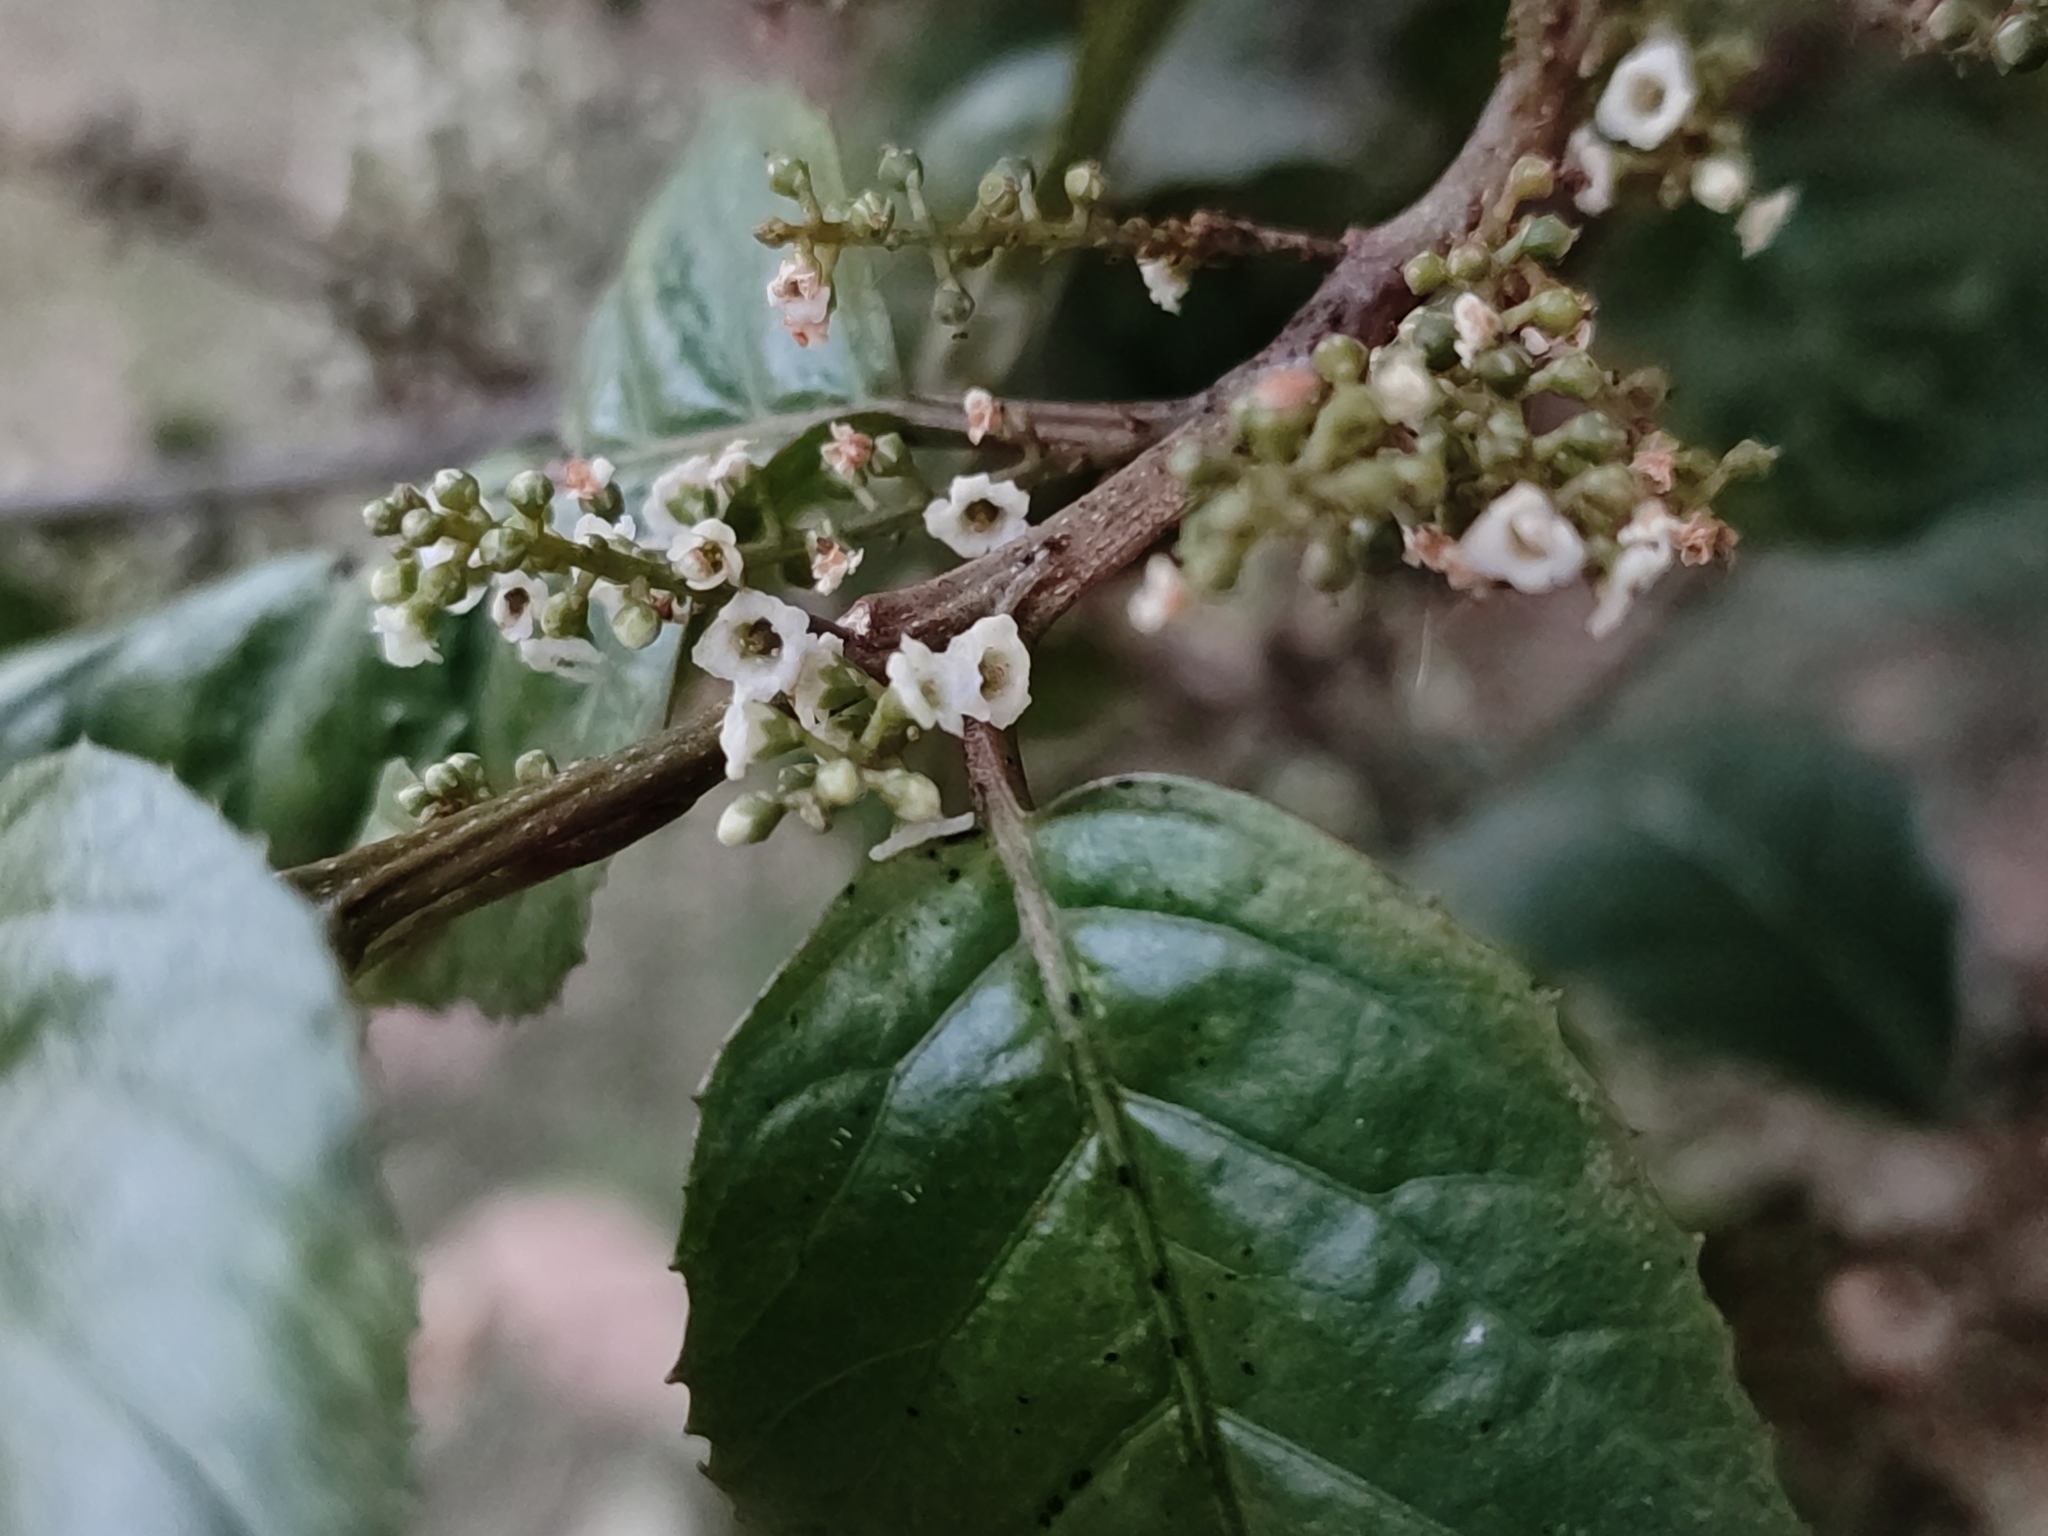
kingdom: Plantae
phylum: Tracheophyta
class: Magnoliopsida
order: Ericales
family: Primulaceae
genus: Maesa
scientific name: Maesa indica
